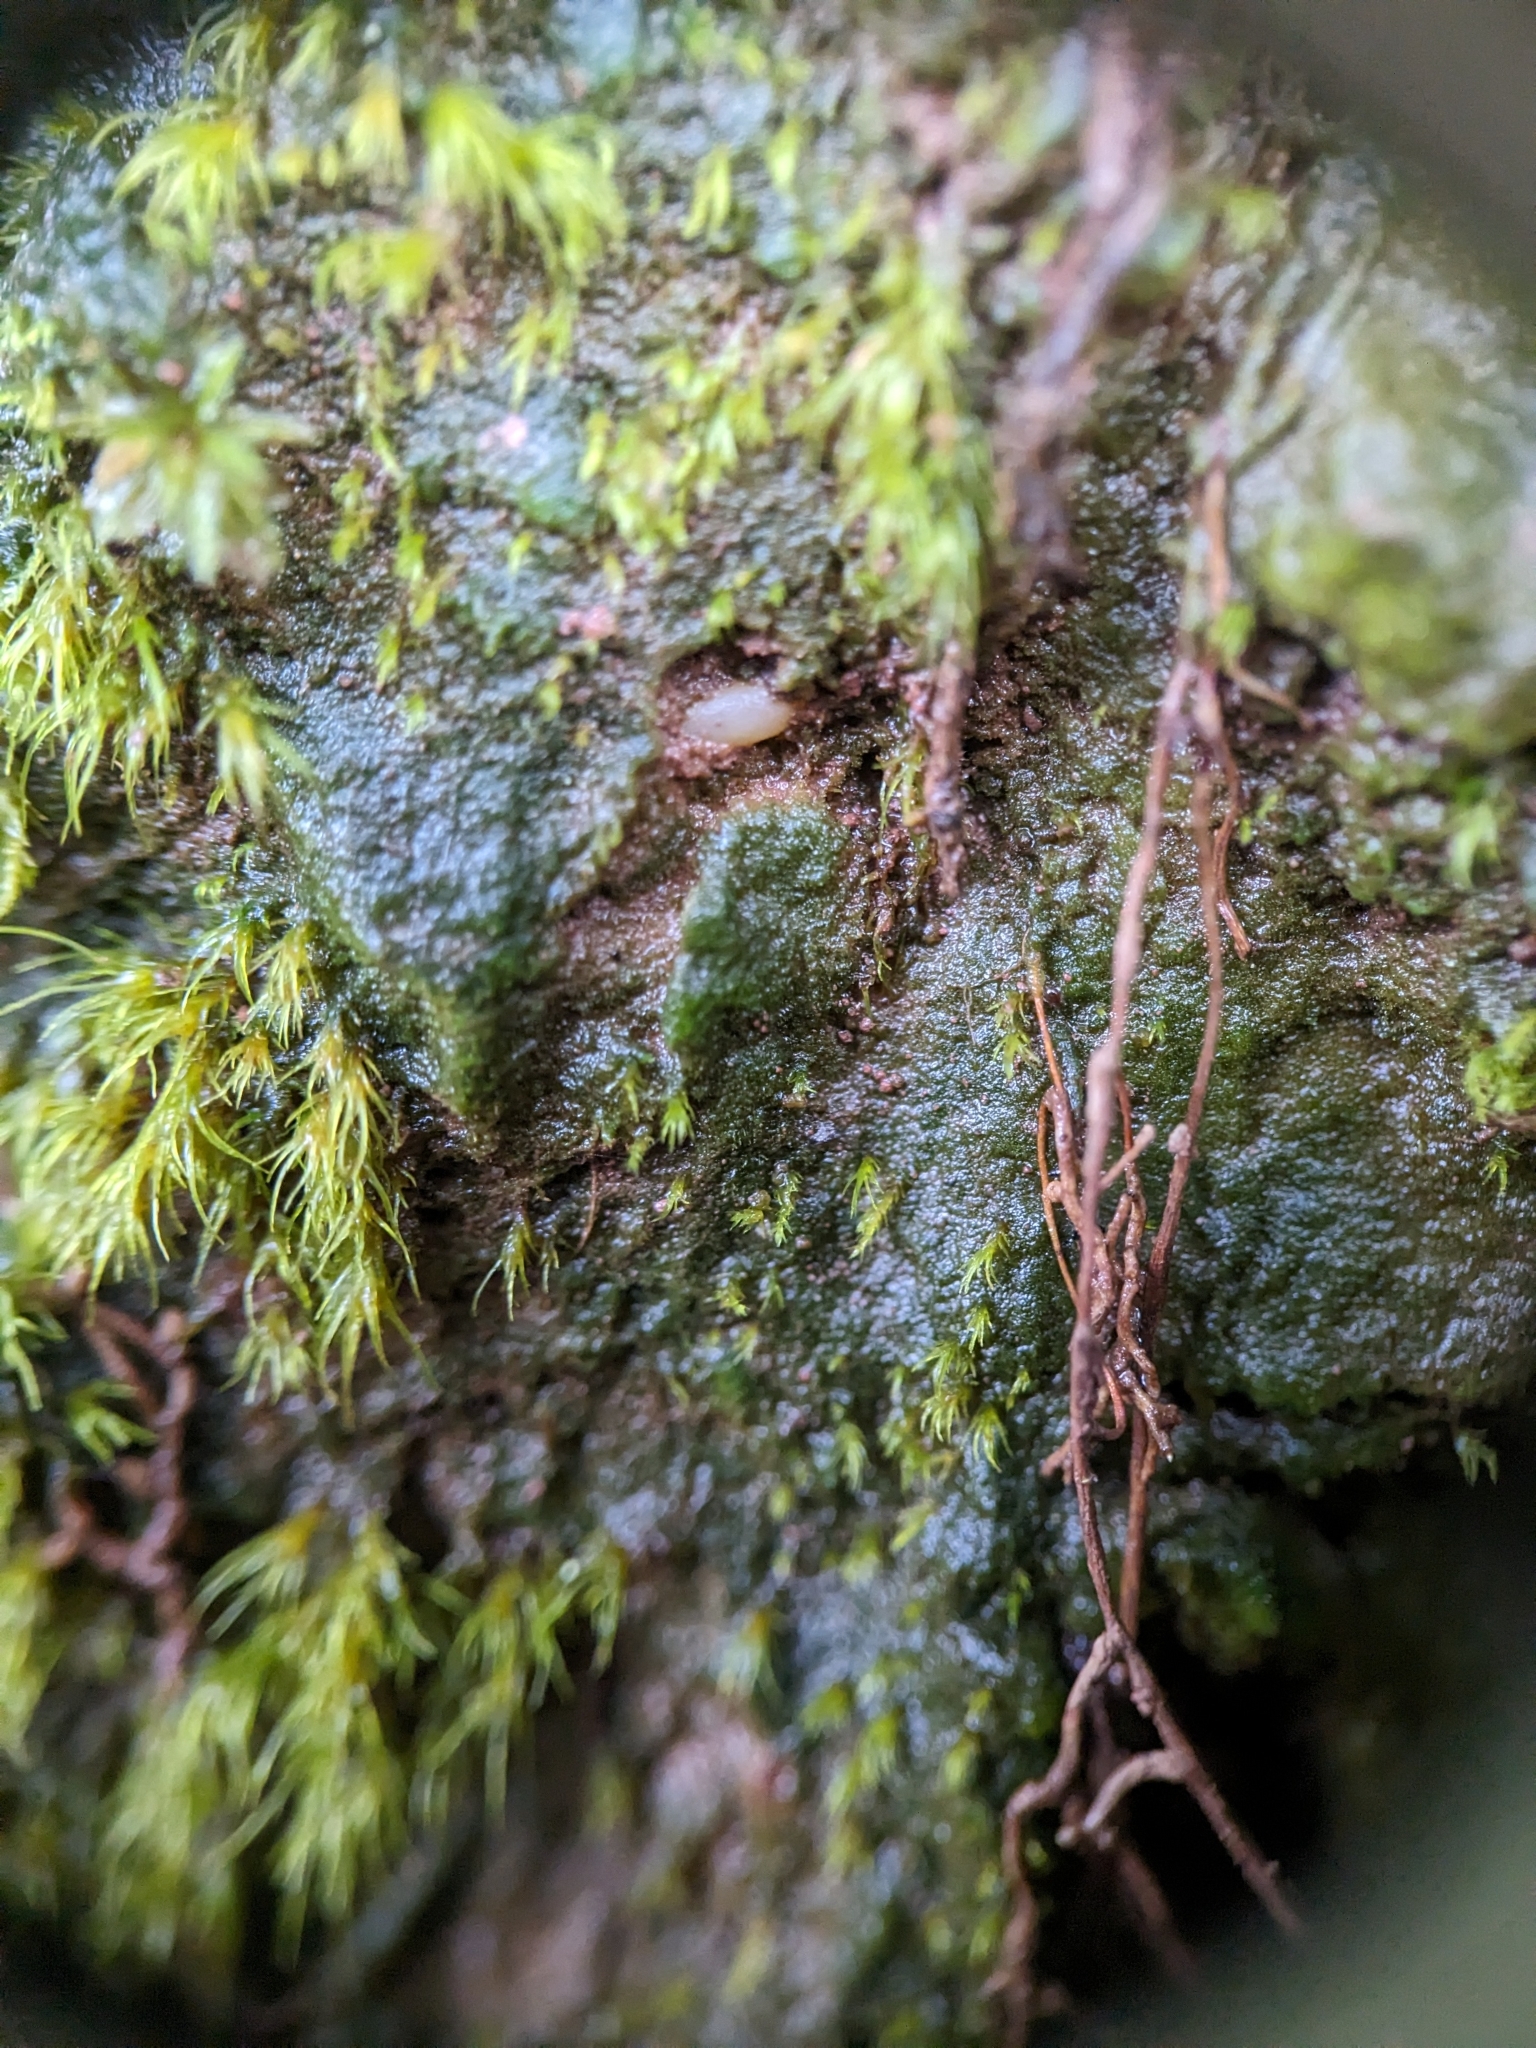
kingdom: Plantae
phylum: Bryophyta
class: Polytrichopsida
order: Polytrichales
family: Polytrichaceae
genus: Pogonatum
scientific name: Pogonatum pensilvanicum
